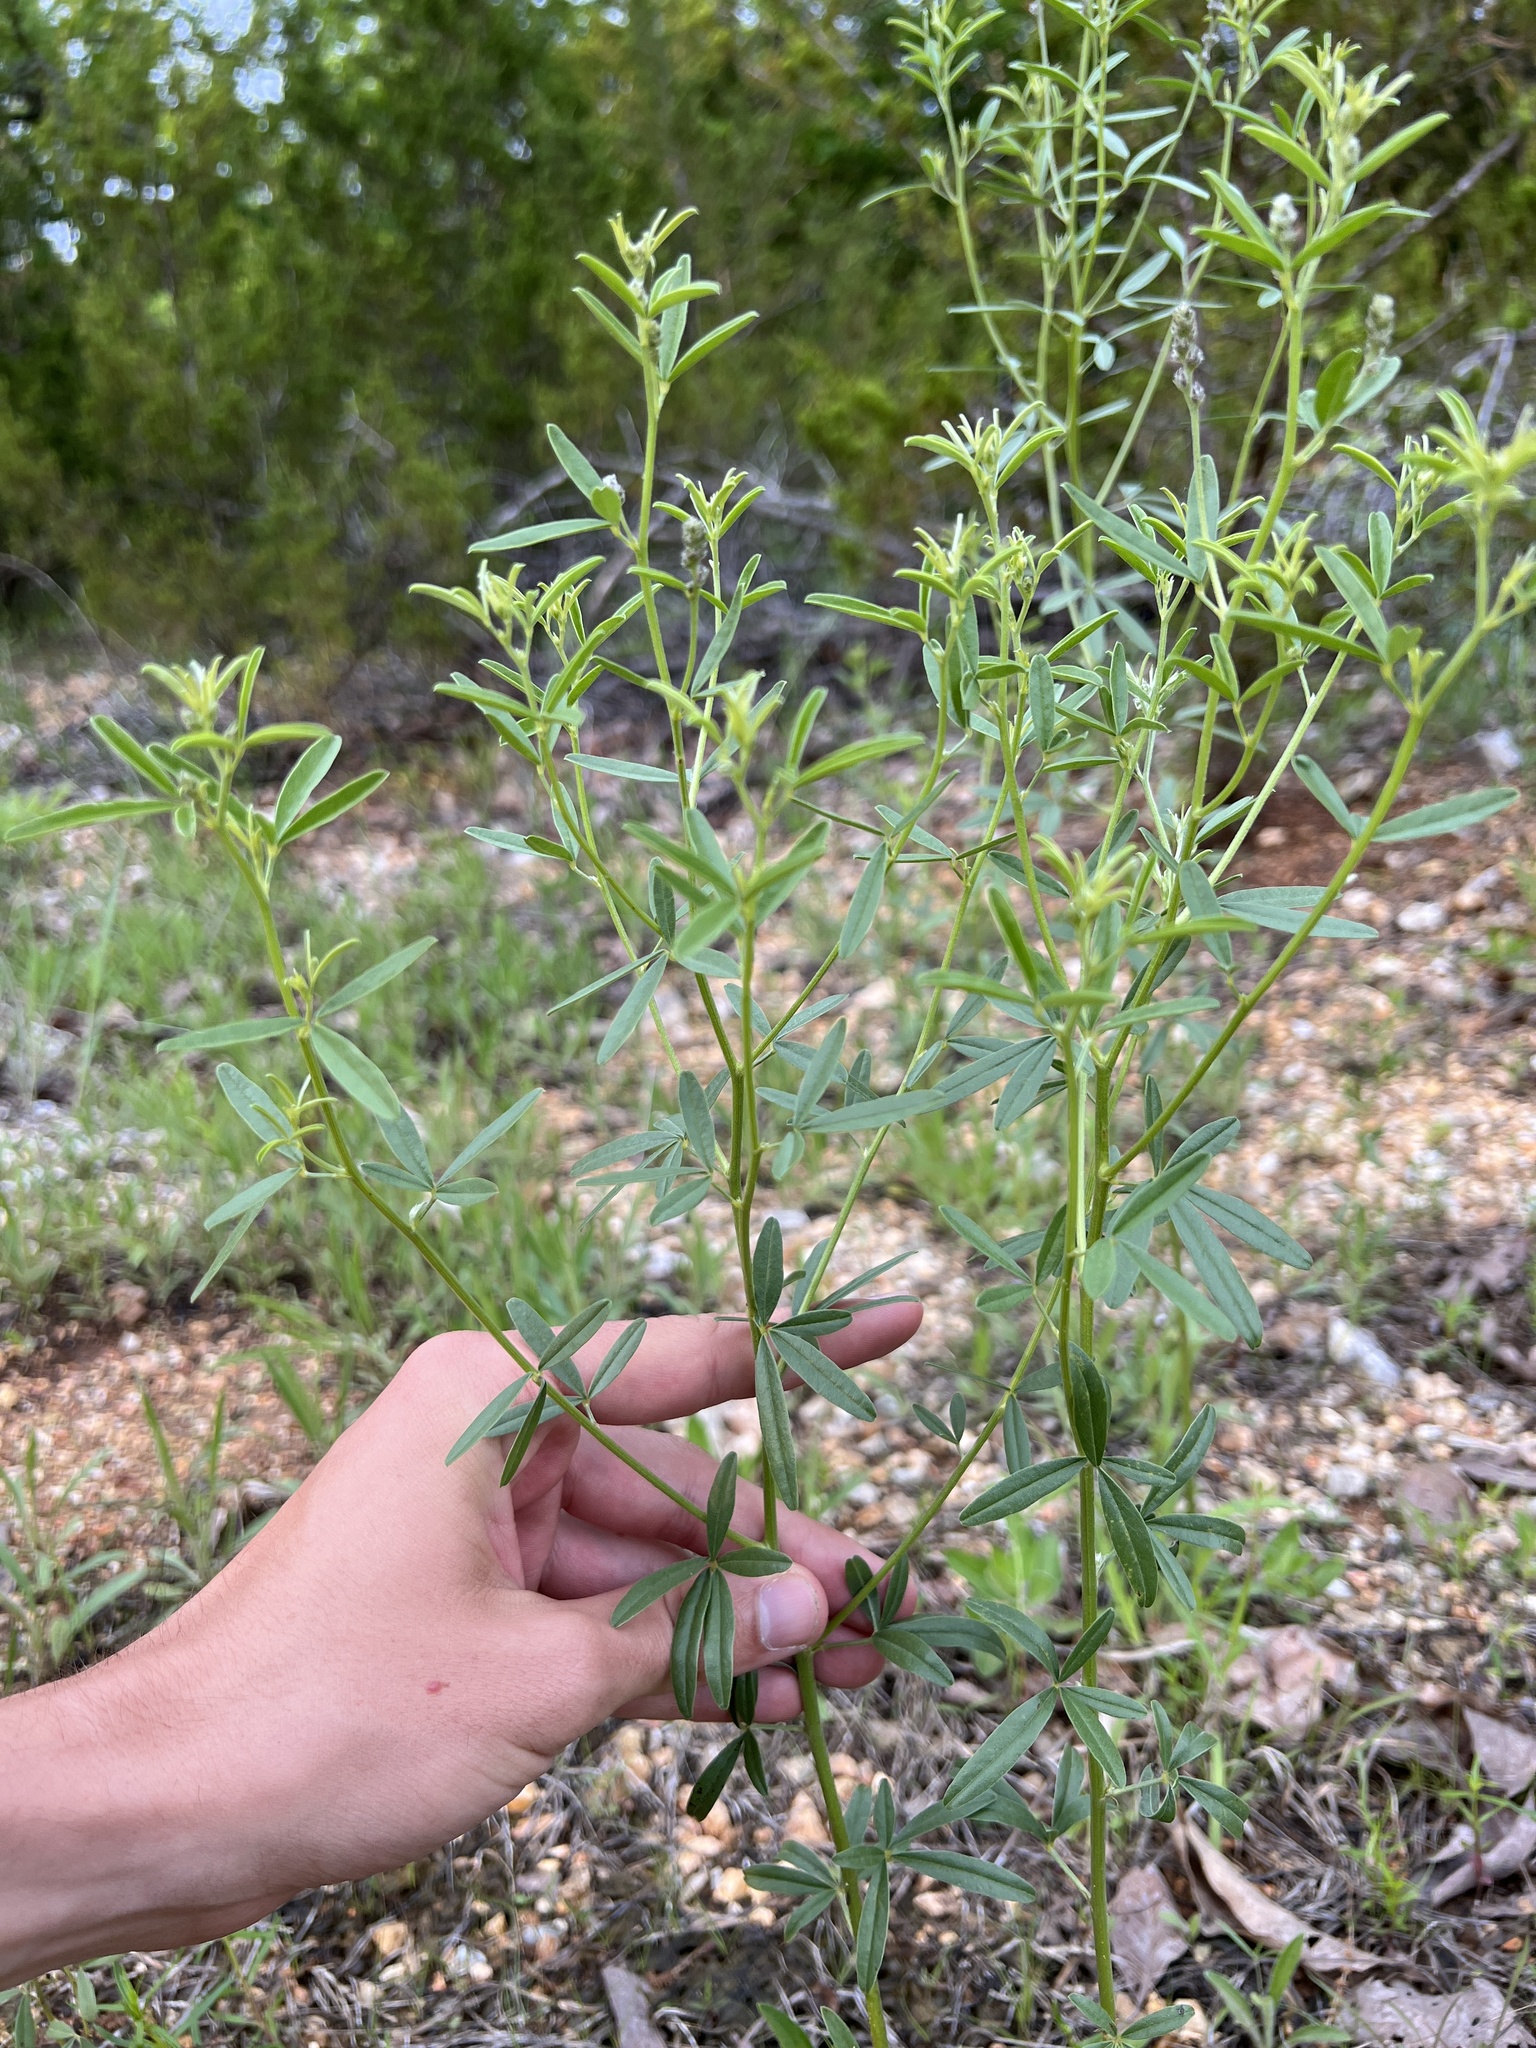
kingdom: Plantae
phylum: Tracheophyta
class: Magnoliopsida
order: Fabales
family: Fabaceae
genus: Pediomelum
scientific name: Pediomelum tenuiflorum
